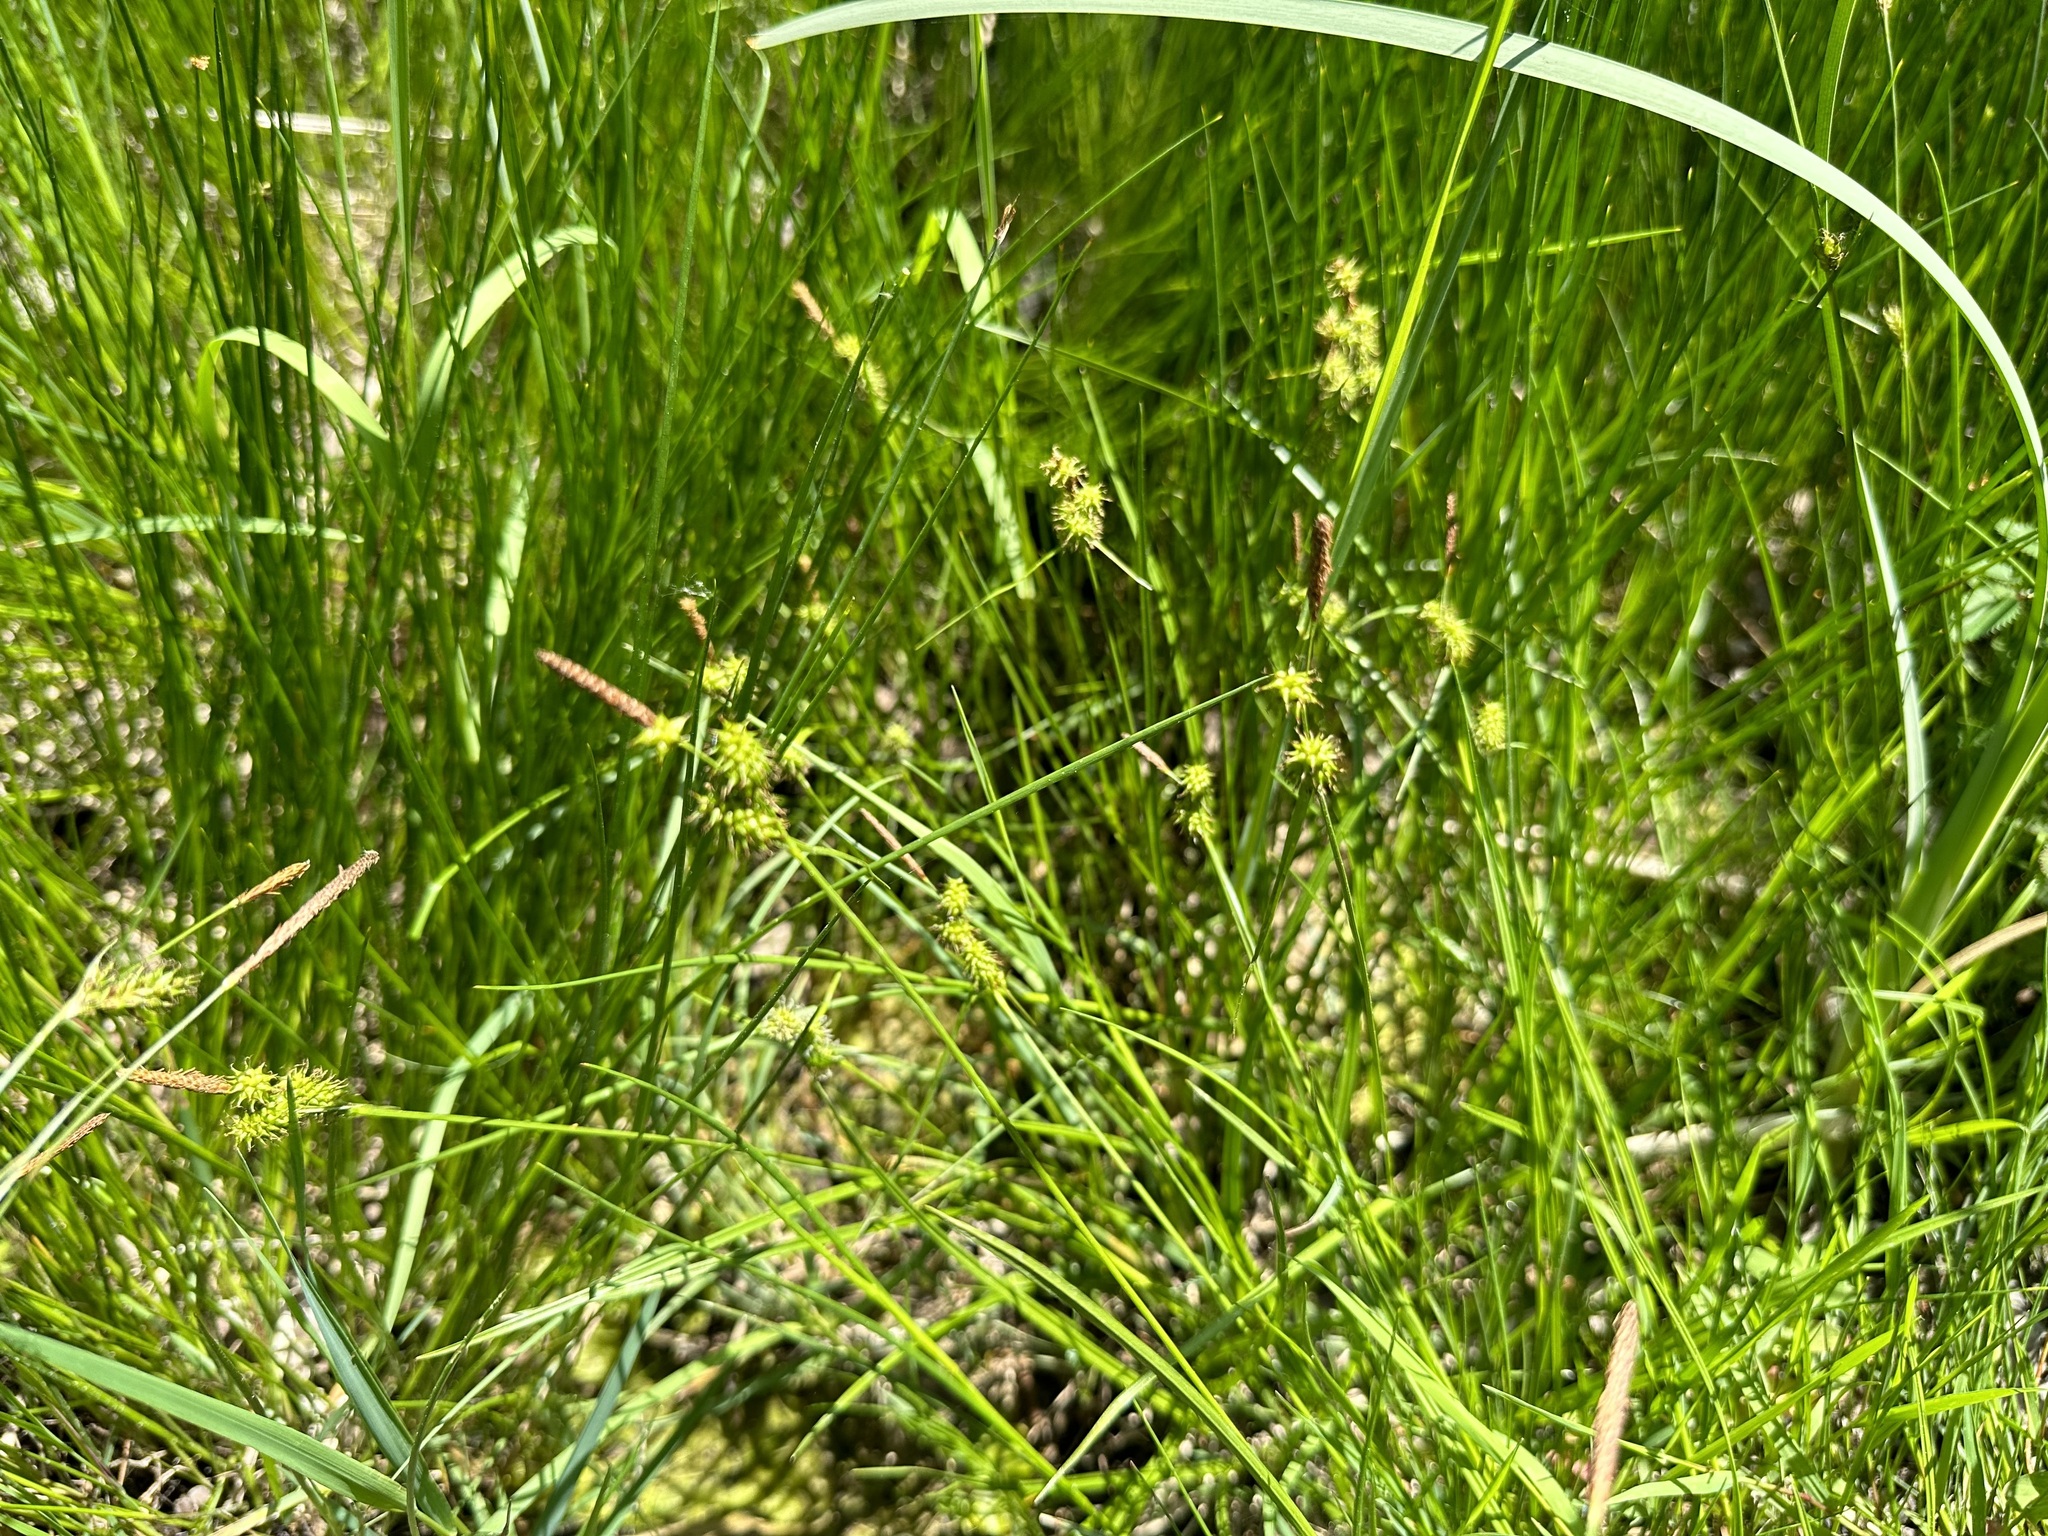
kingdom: Plantae
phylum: Tracheophyta
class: Liliopsida
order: Poales
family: Cyperaceae
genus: Carex
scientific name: Carex flava
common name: Large yellow-sedge
